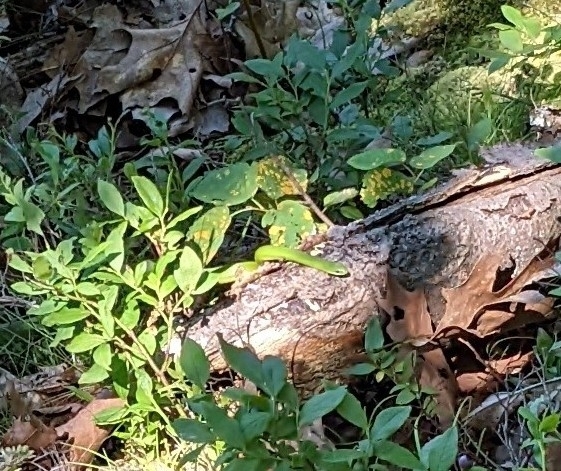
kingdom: Animalia
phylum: Chordata
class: Squamata
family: Colubridae
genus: Opheodrys
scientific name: Opheodrys vernalis
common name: Smooth green snake
